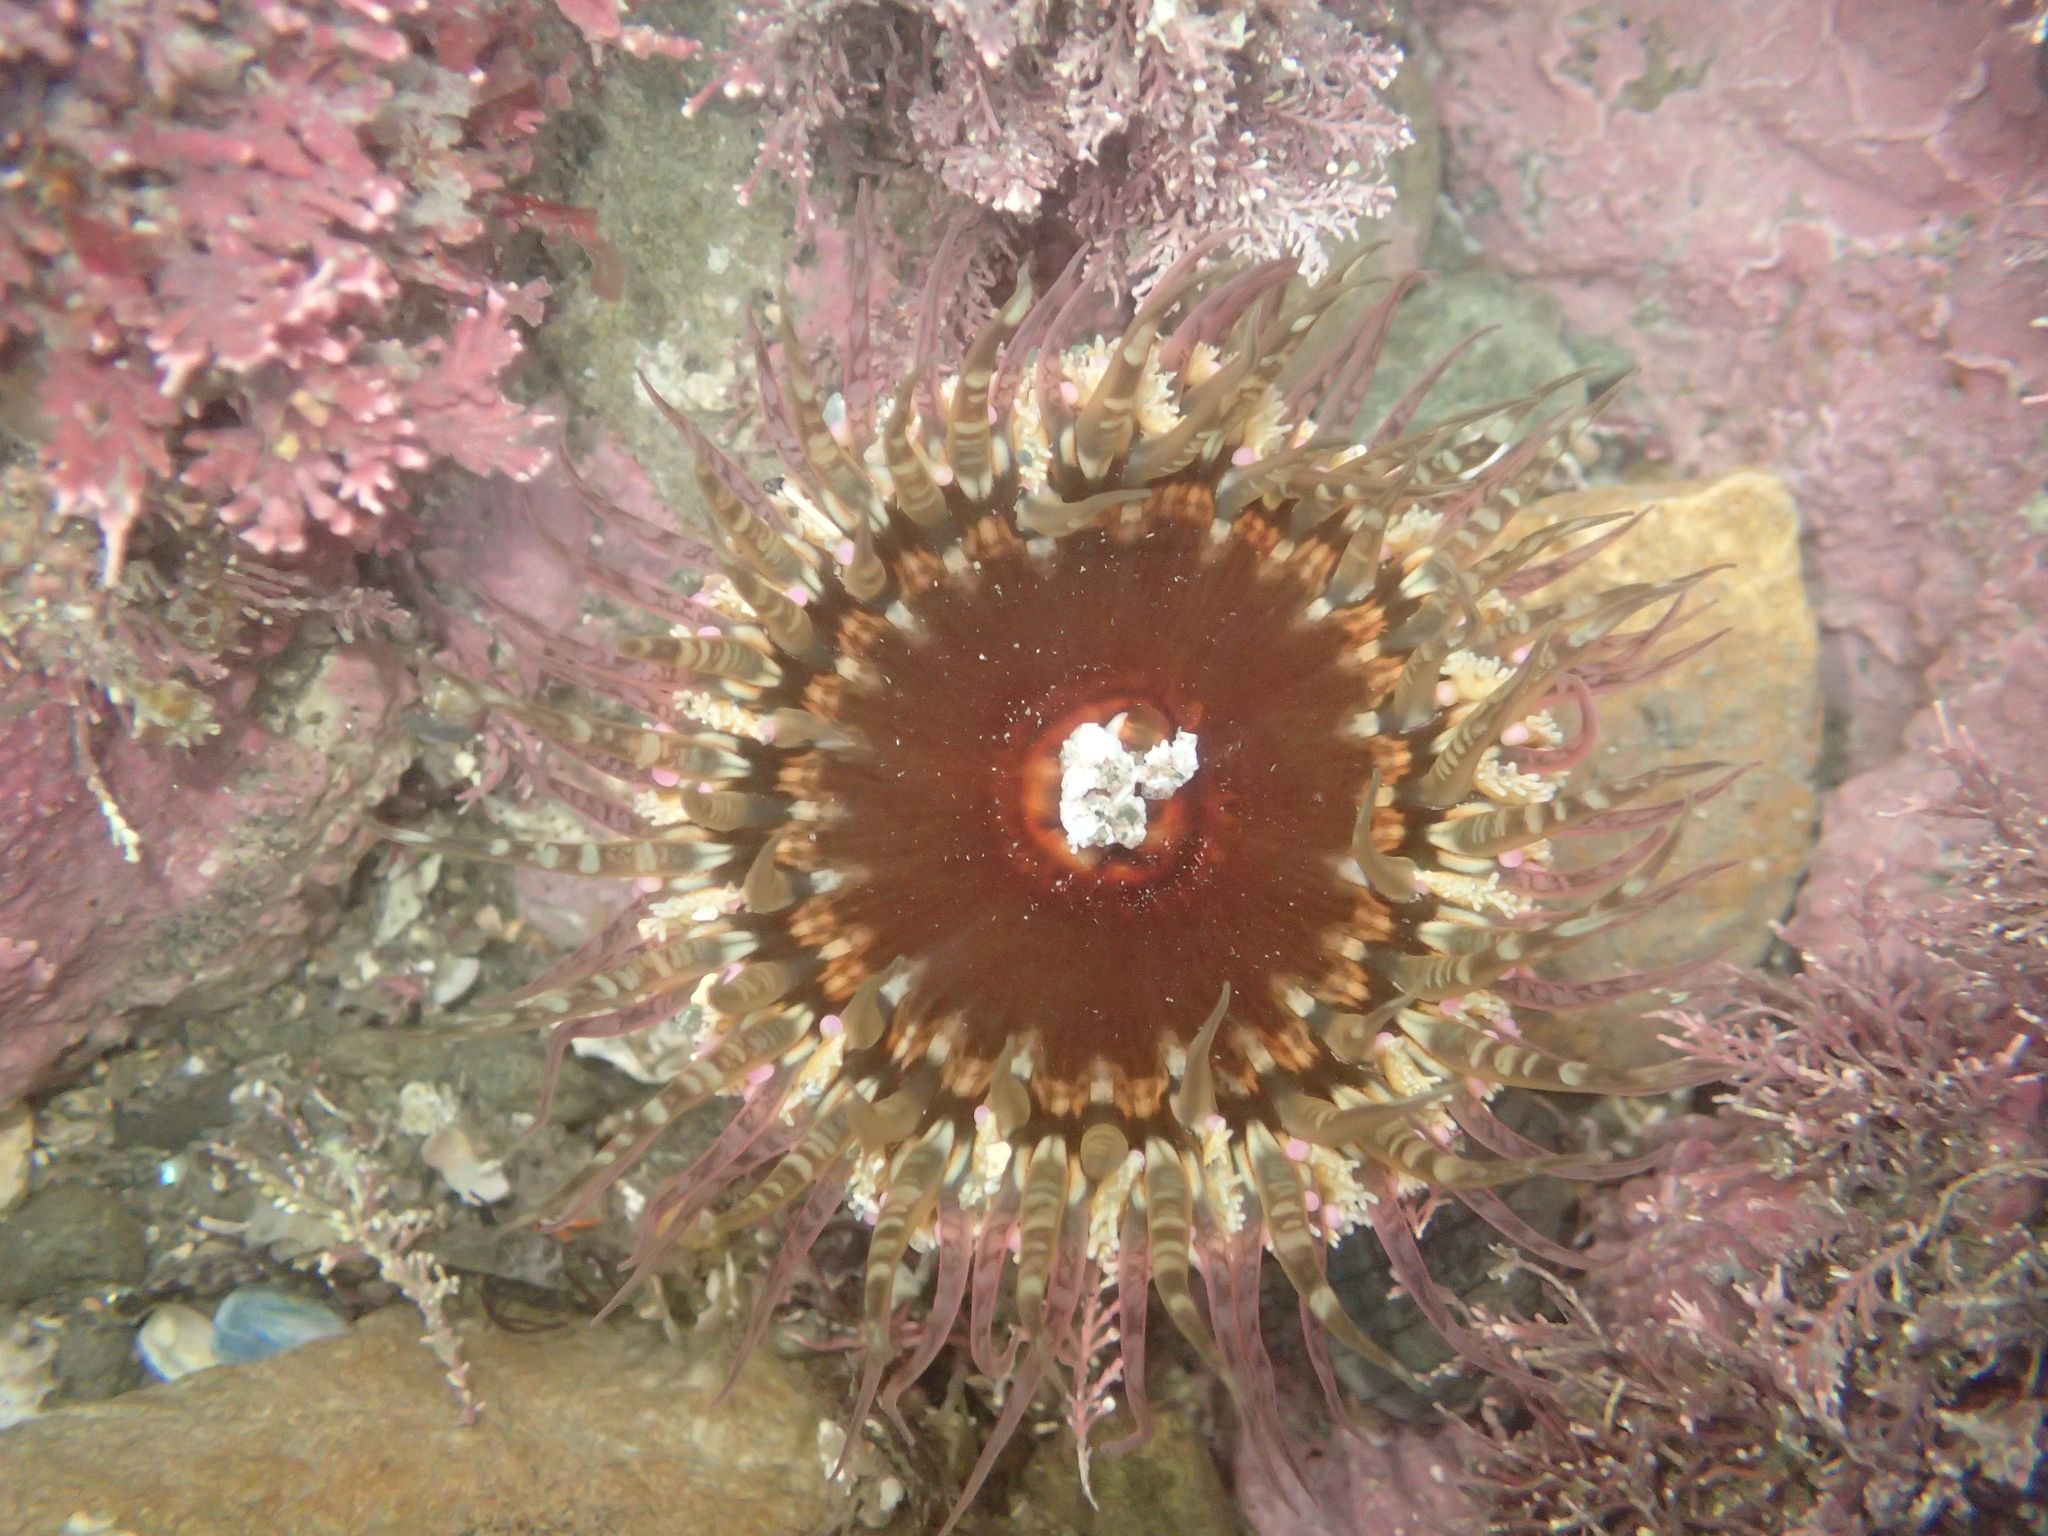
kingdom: Animalia
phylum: Cnidaria
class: Anthozoa
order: Actiniaria
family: Actiniidae
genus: Oulactis
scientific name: Oulactis muscosa
